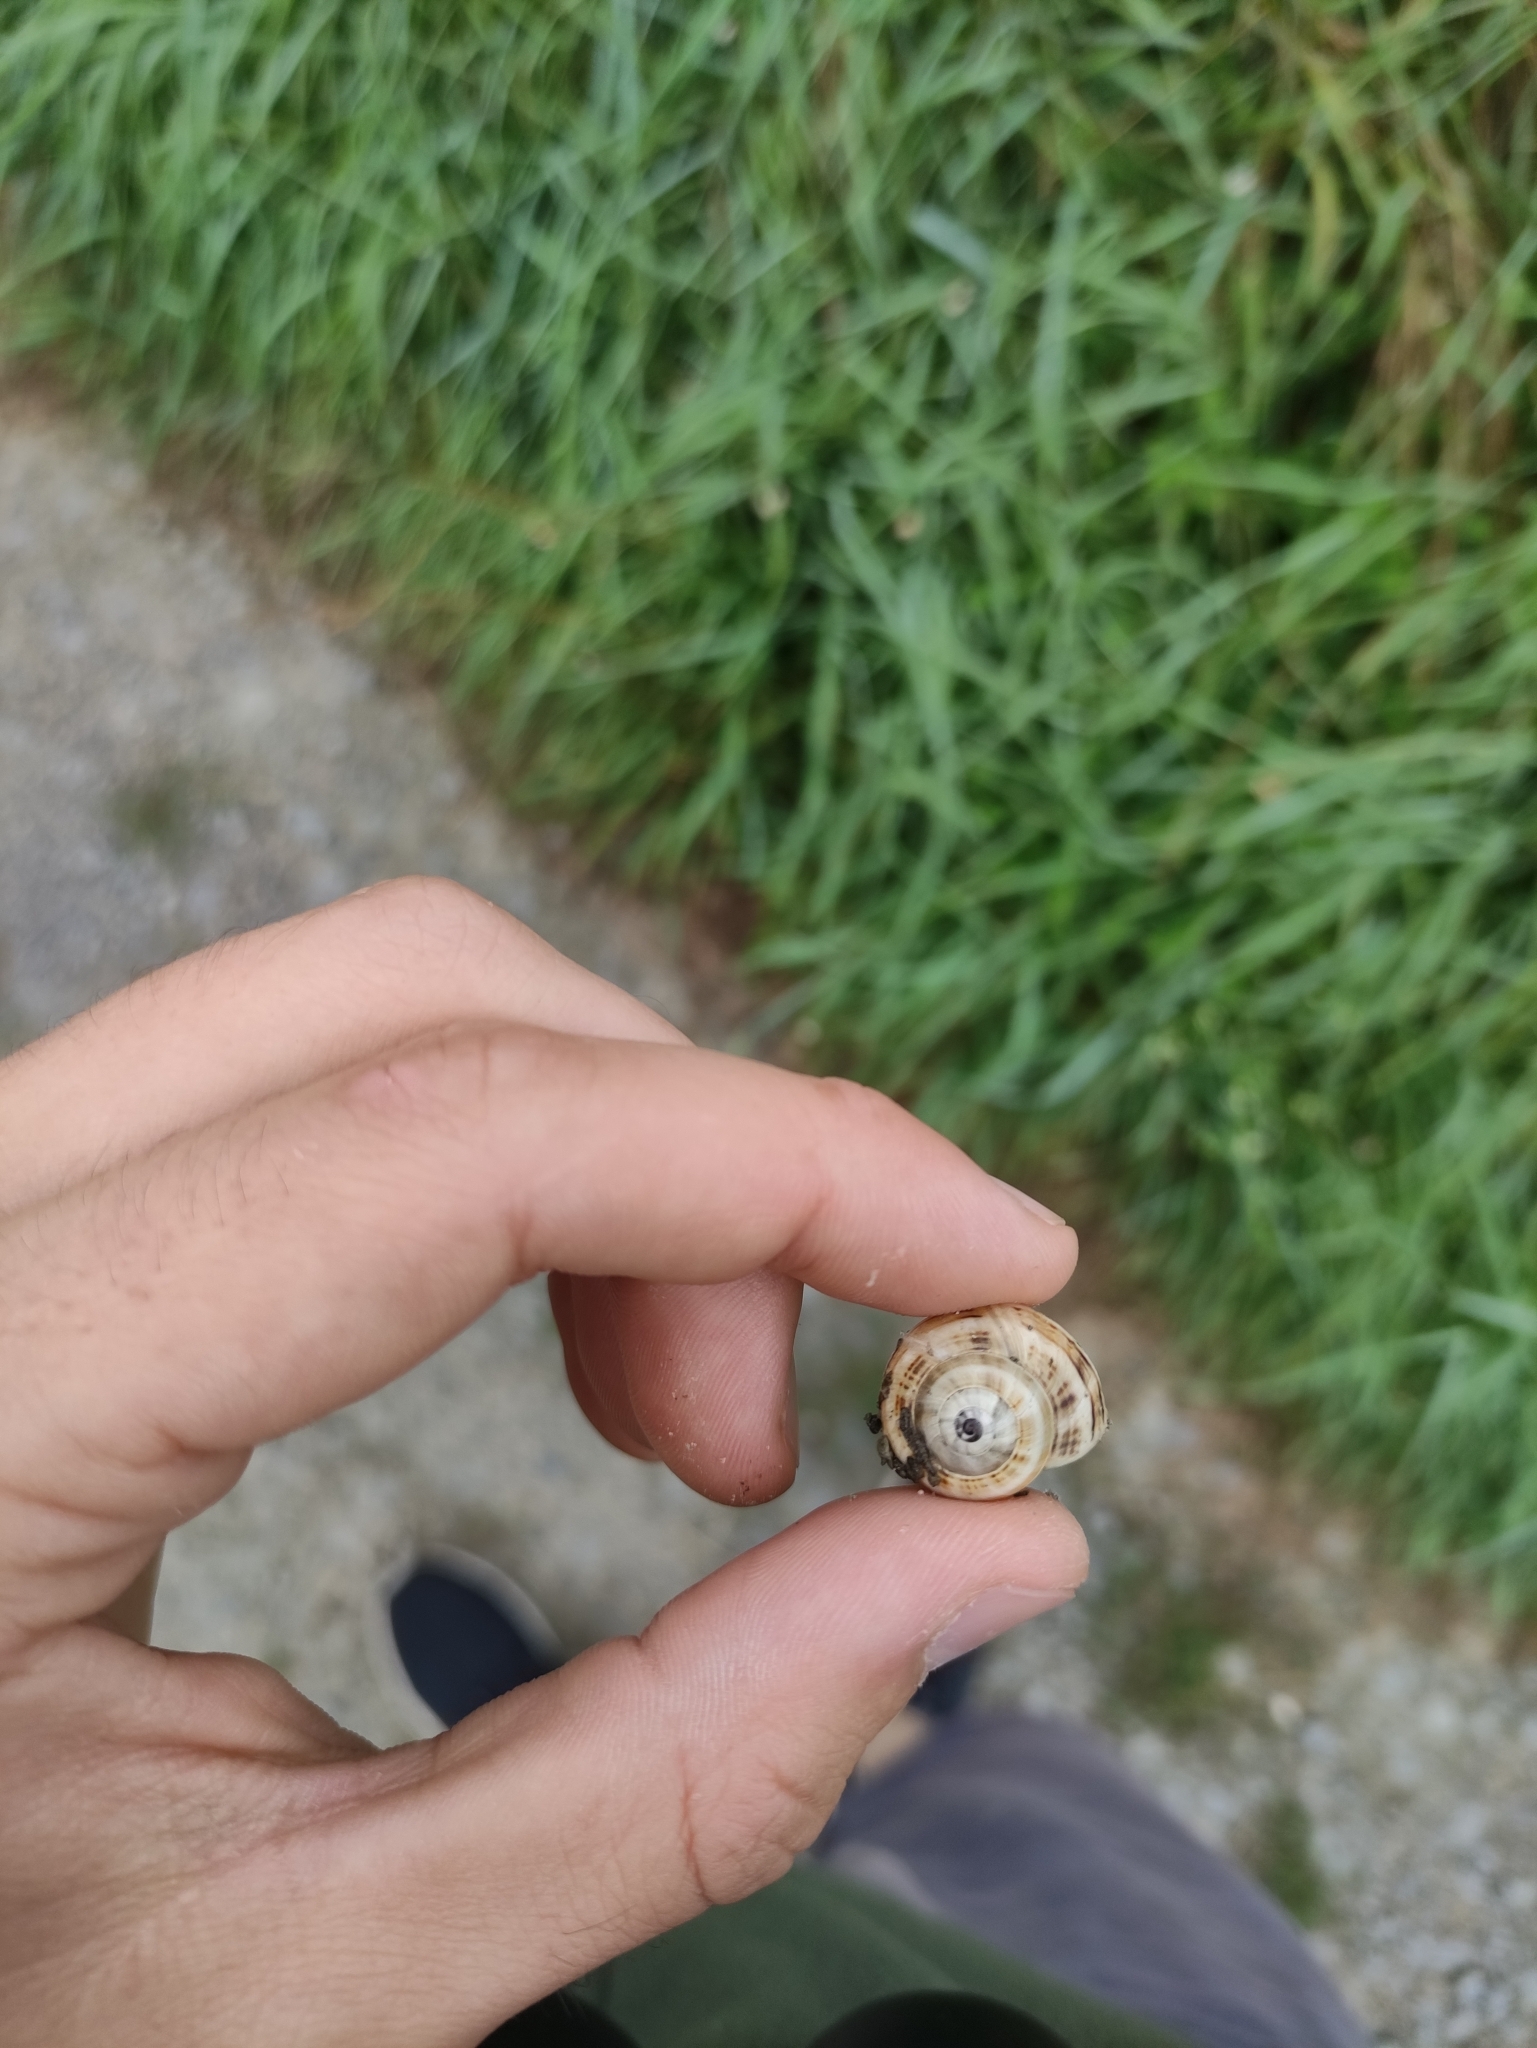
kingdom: Animalia
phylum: Mollusca
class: Gastropoda
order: Stylommatophora
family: Helicidae
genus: Theba
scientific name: Theba pisana
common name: White snail
